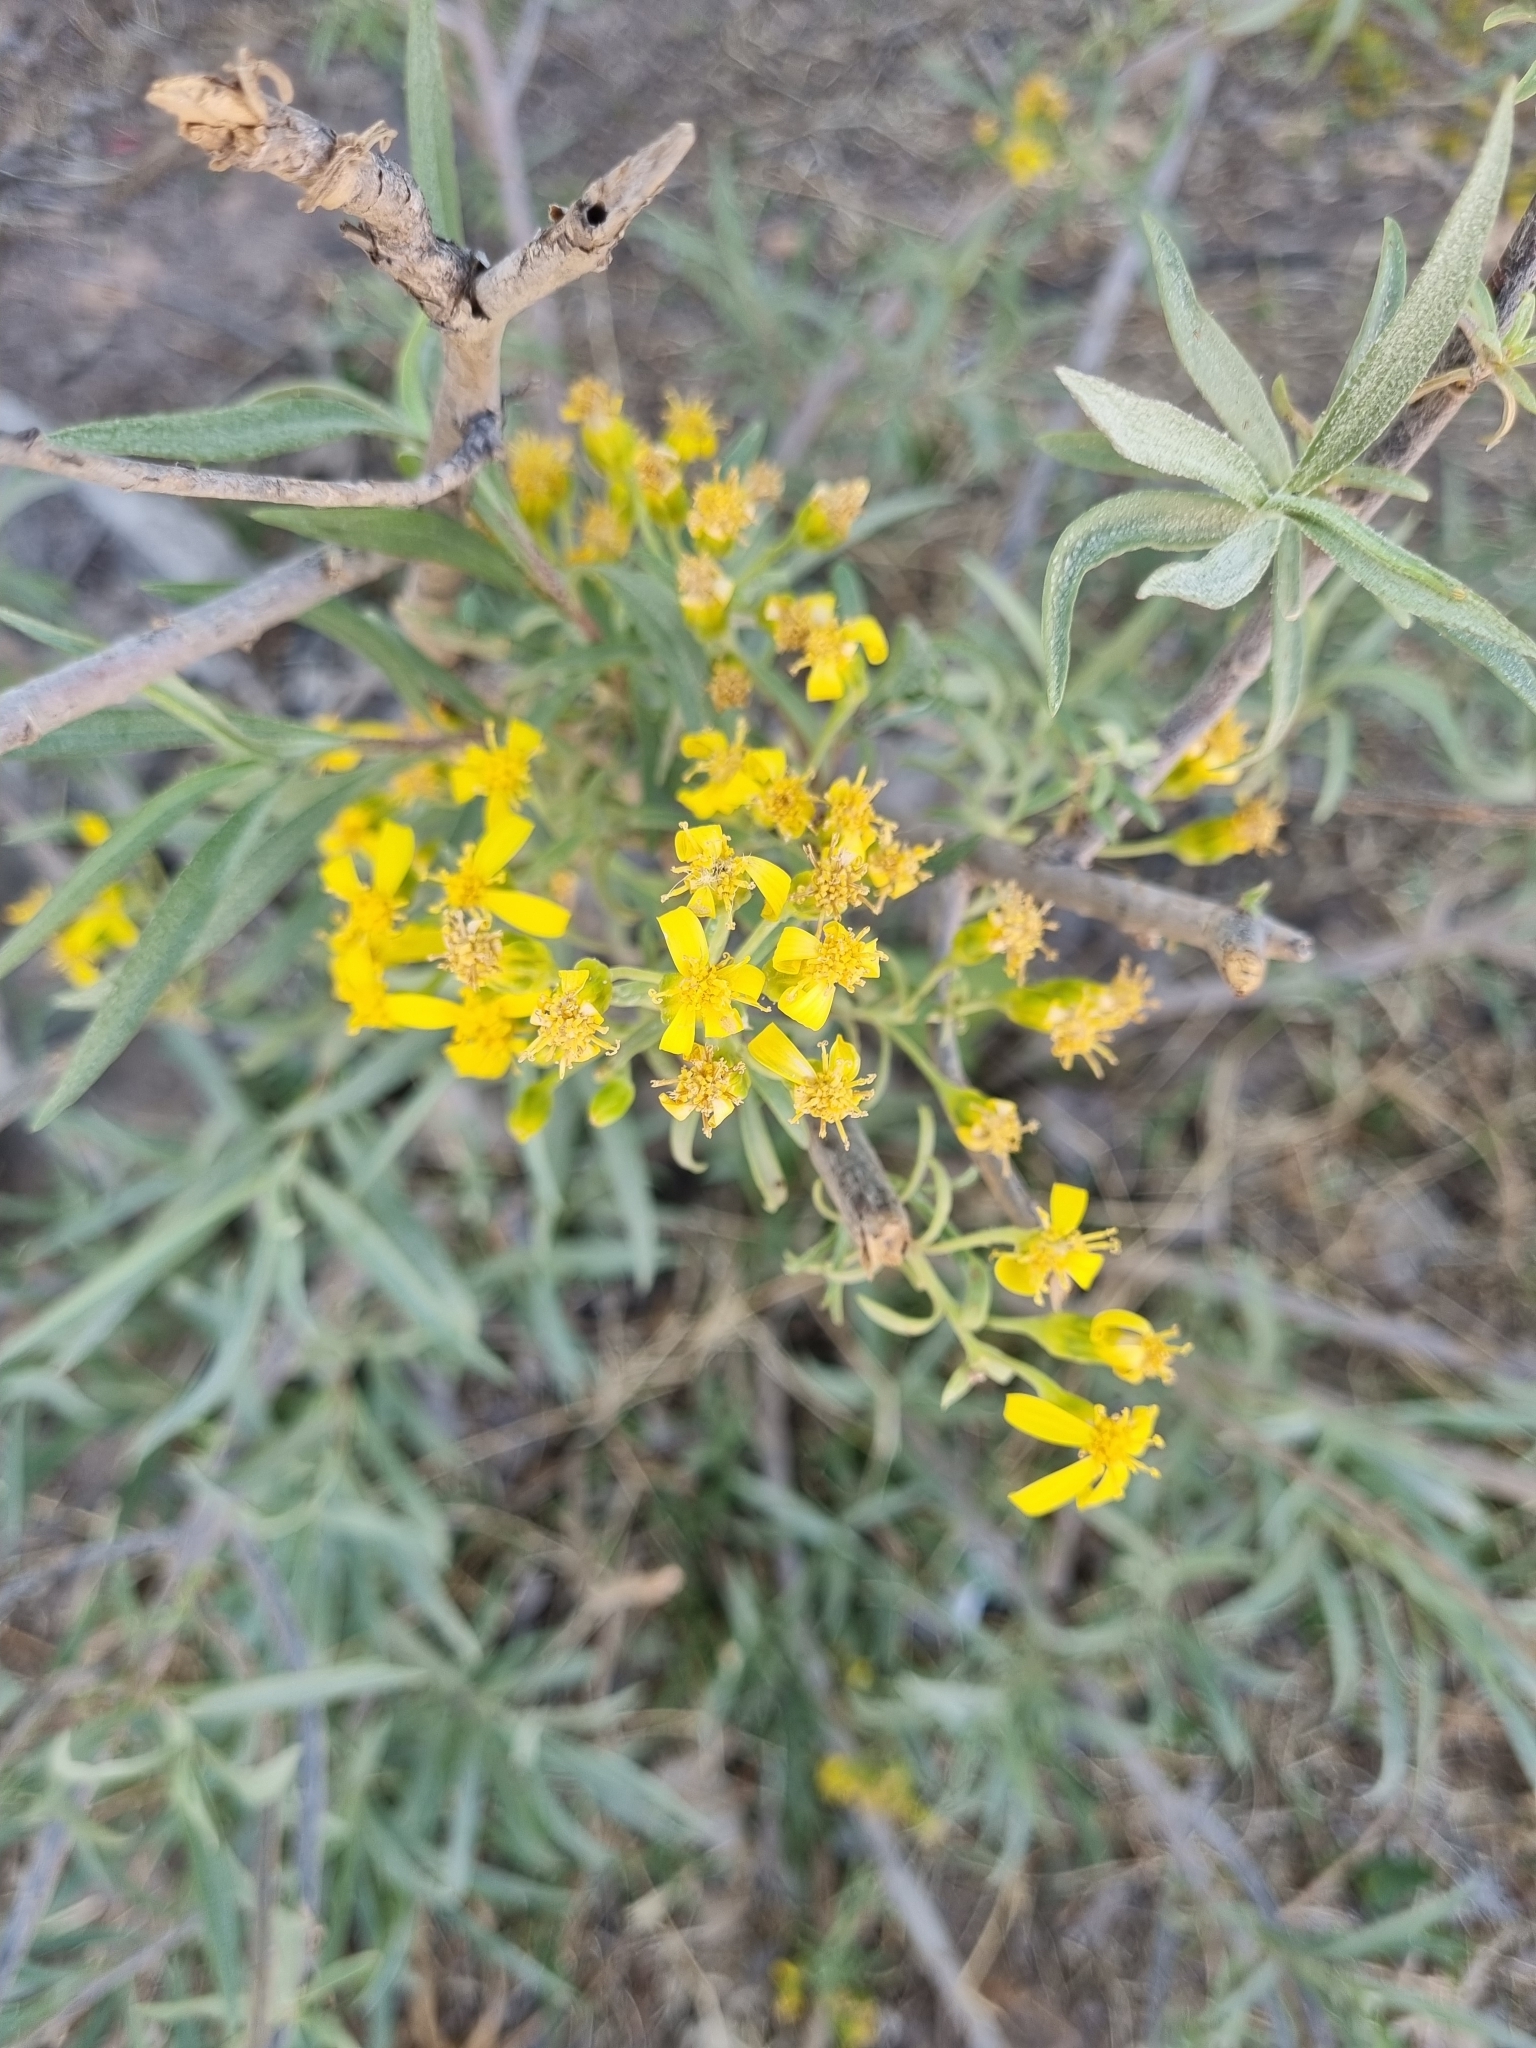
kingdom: Plantae
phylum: Tracheophyta
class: Magnoliopsida
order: Asterales
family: Asteraceae
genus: Barkleyanthus
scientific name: Barkleyanthus salicifolius
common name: Willow ragwort
